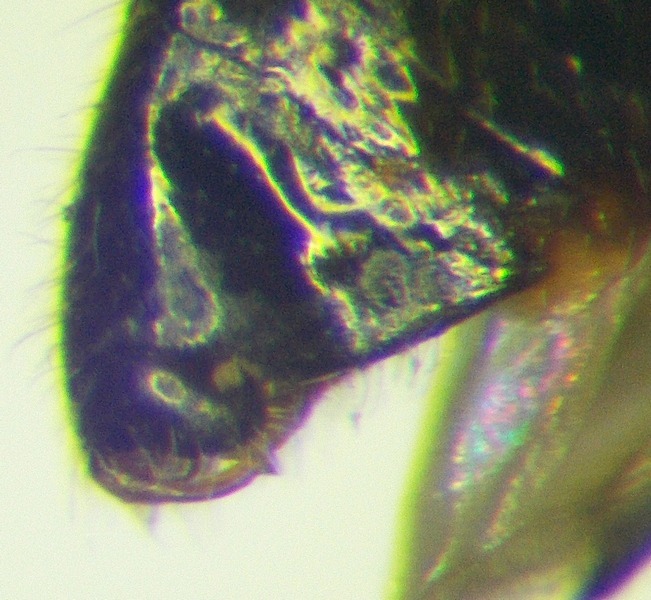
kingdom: Animalia
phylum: Arthropoda
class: Insecta
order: Hemiptera
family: Miridae
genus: Deraeocoris
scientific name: Deraeocoris serenus
